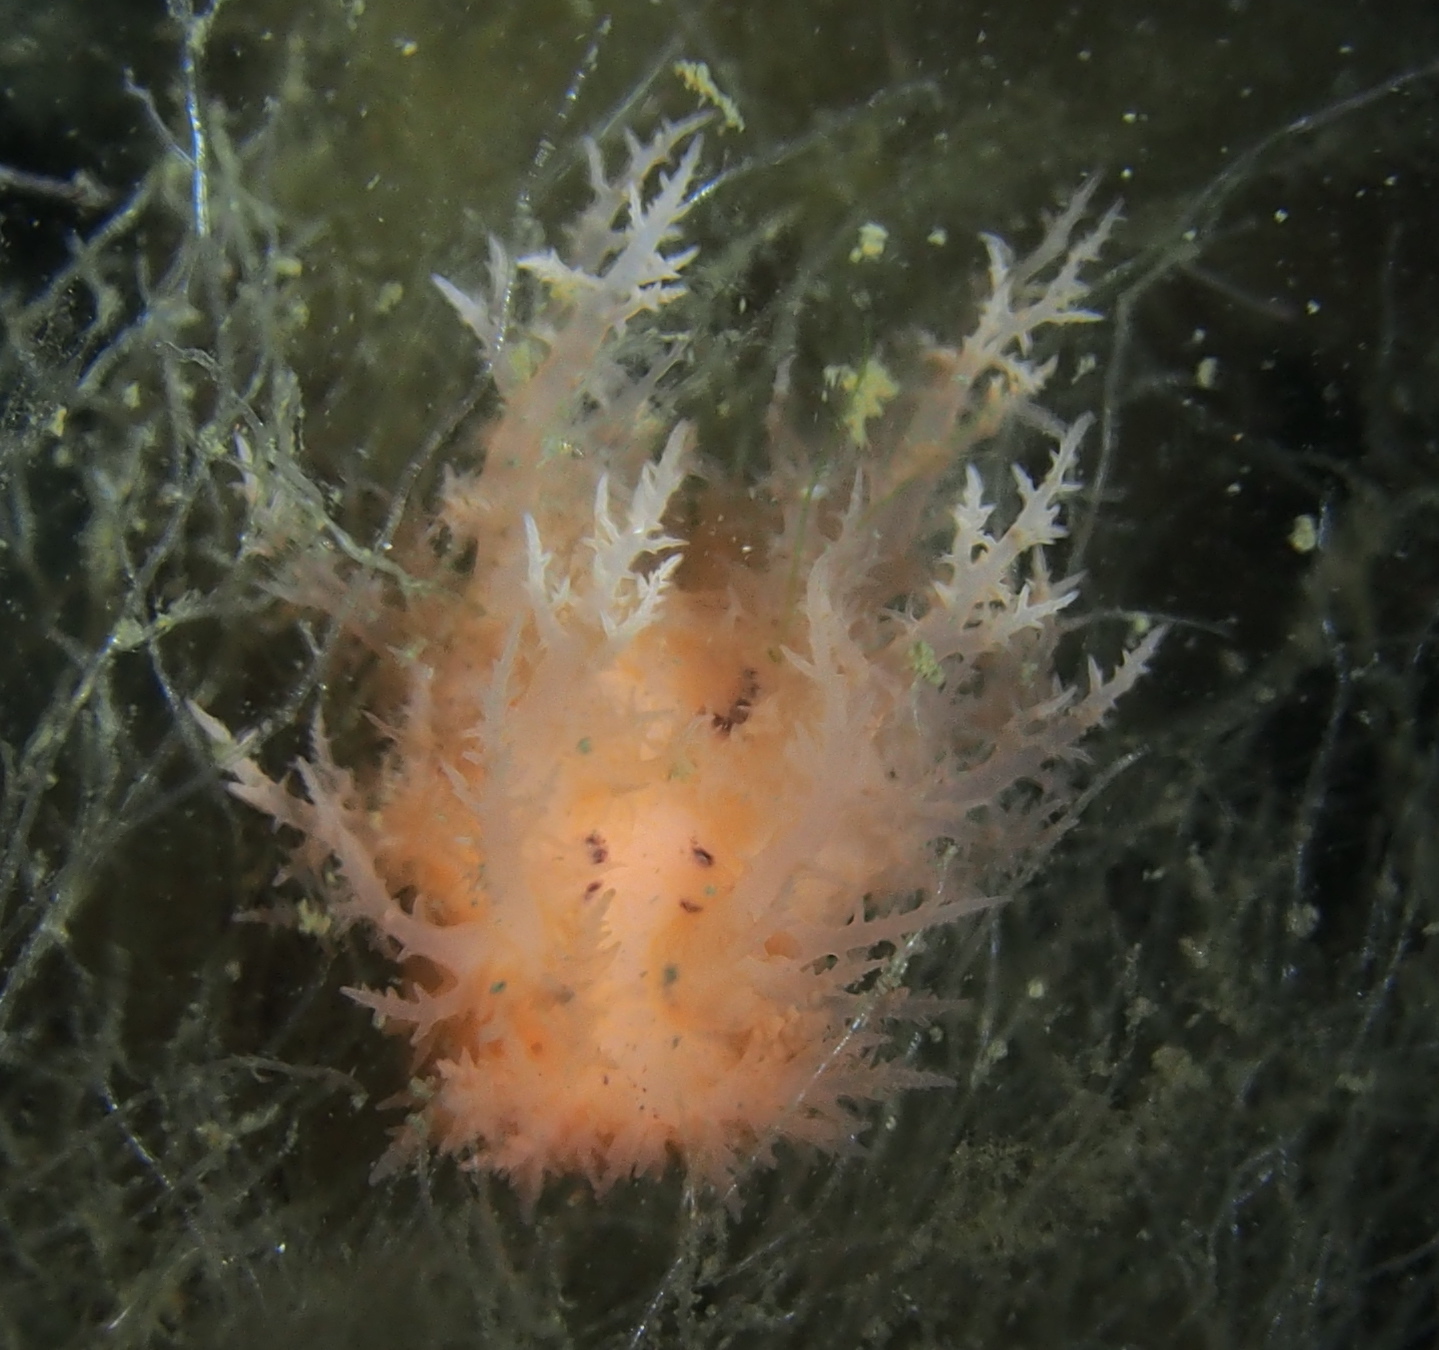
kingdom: Animalia
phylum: Mollusca
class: Gastropoda
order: Nudibranchia
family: Dendronotidae
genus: Dendronotus
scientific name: Dendronotus frondosus
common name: Bushy-backed nudibranch
